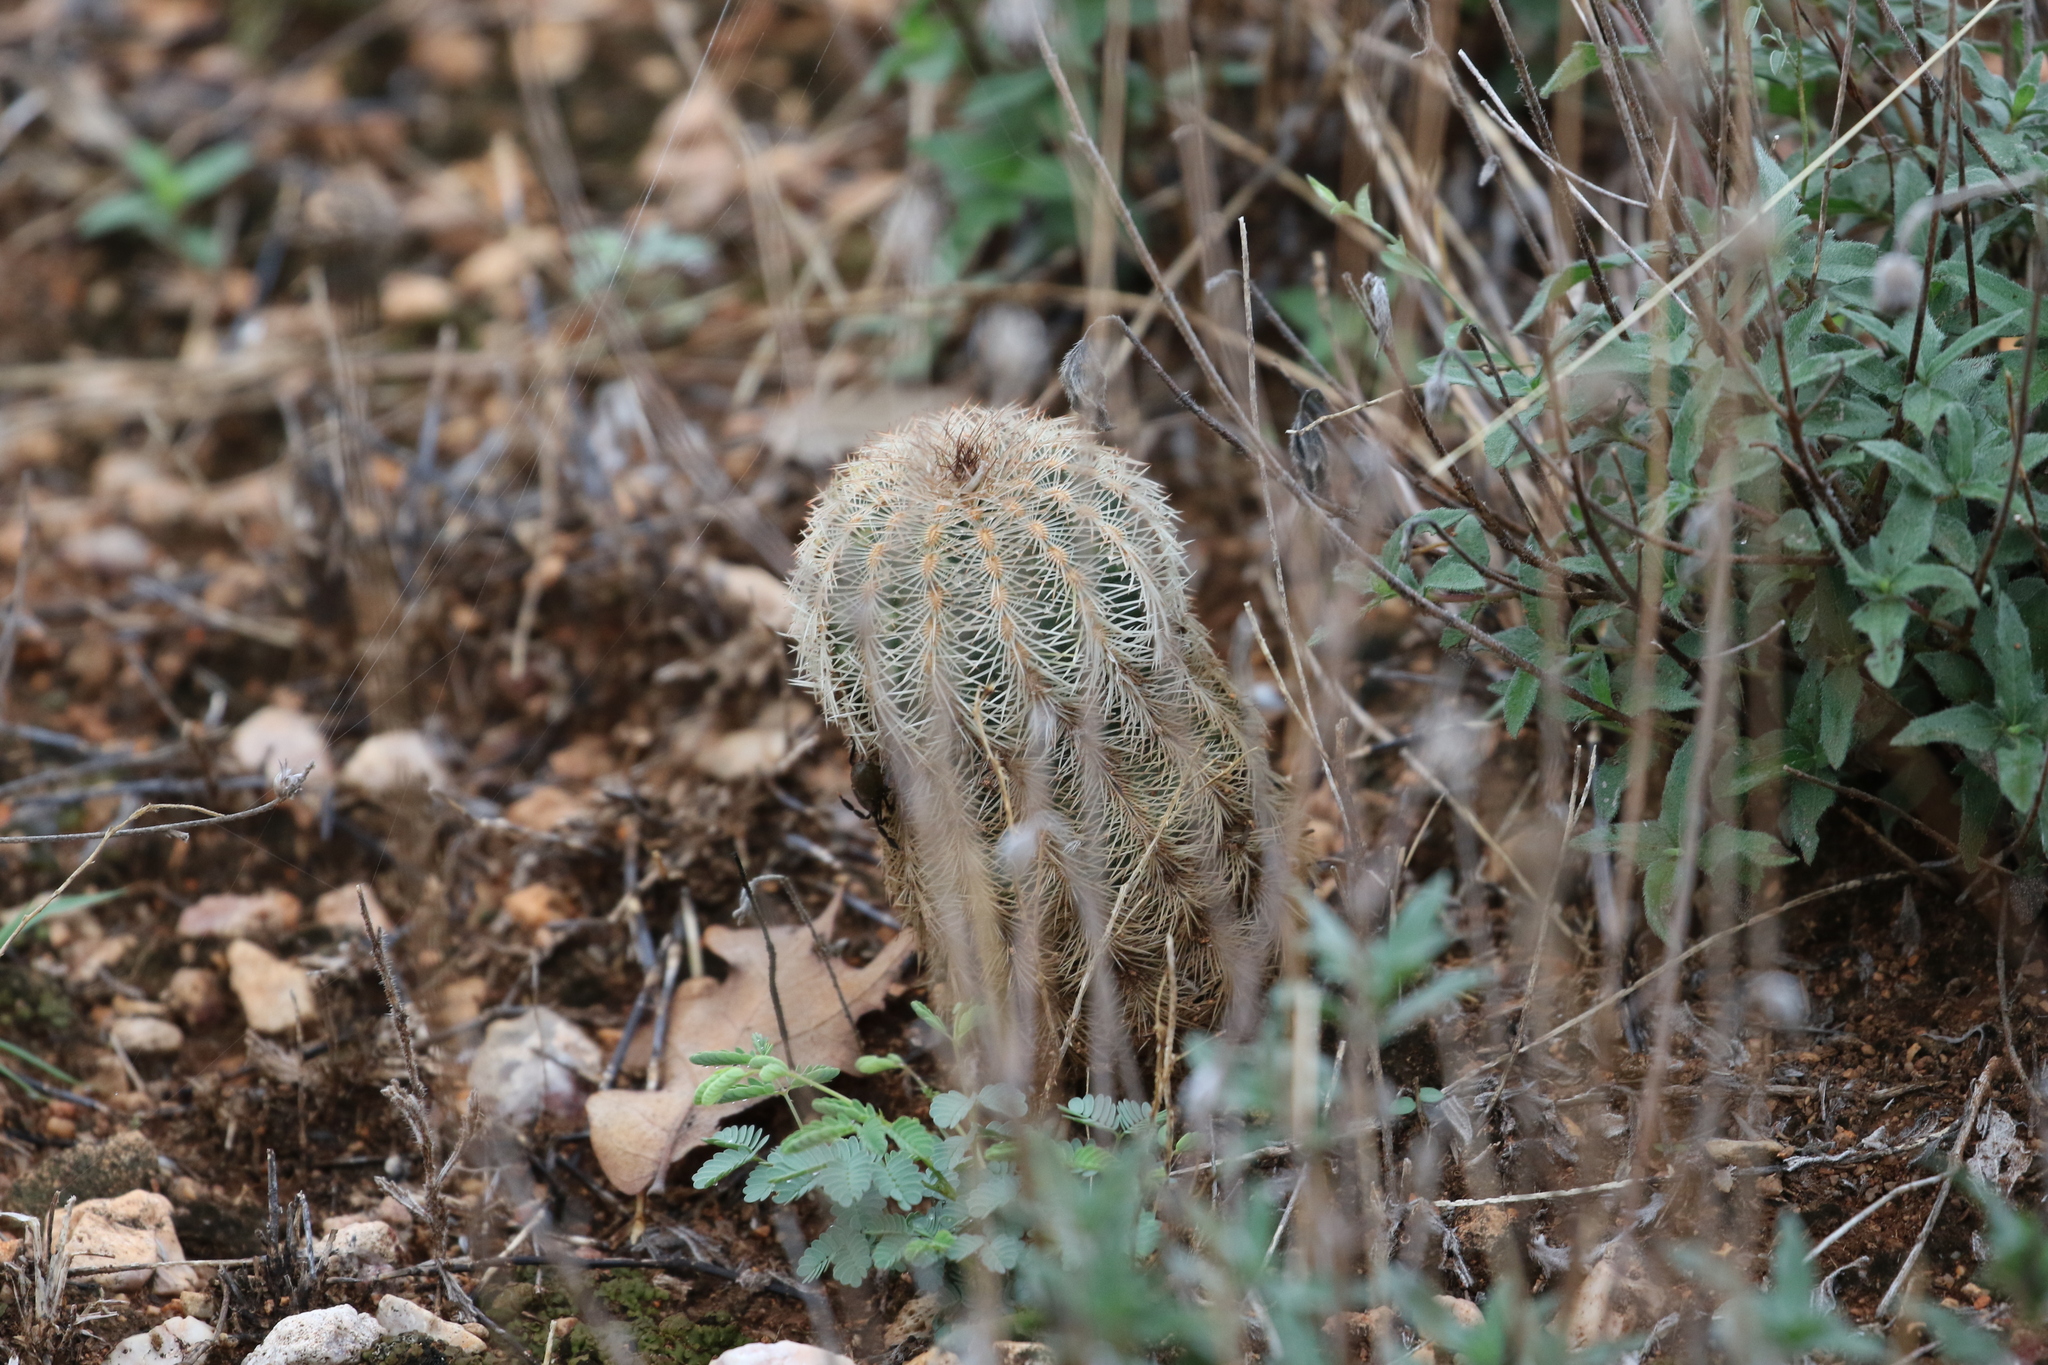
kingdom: Plantae
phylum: Tracheophyta
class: Magnoliopsida
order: Caryophyllales
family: Cactaceae
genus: Echinocereus
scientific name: Echinocereus reichenbachii
